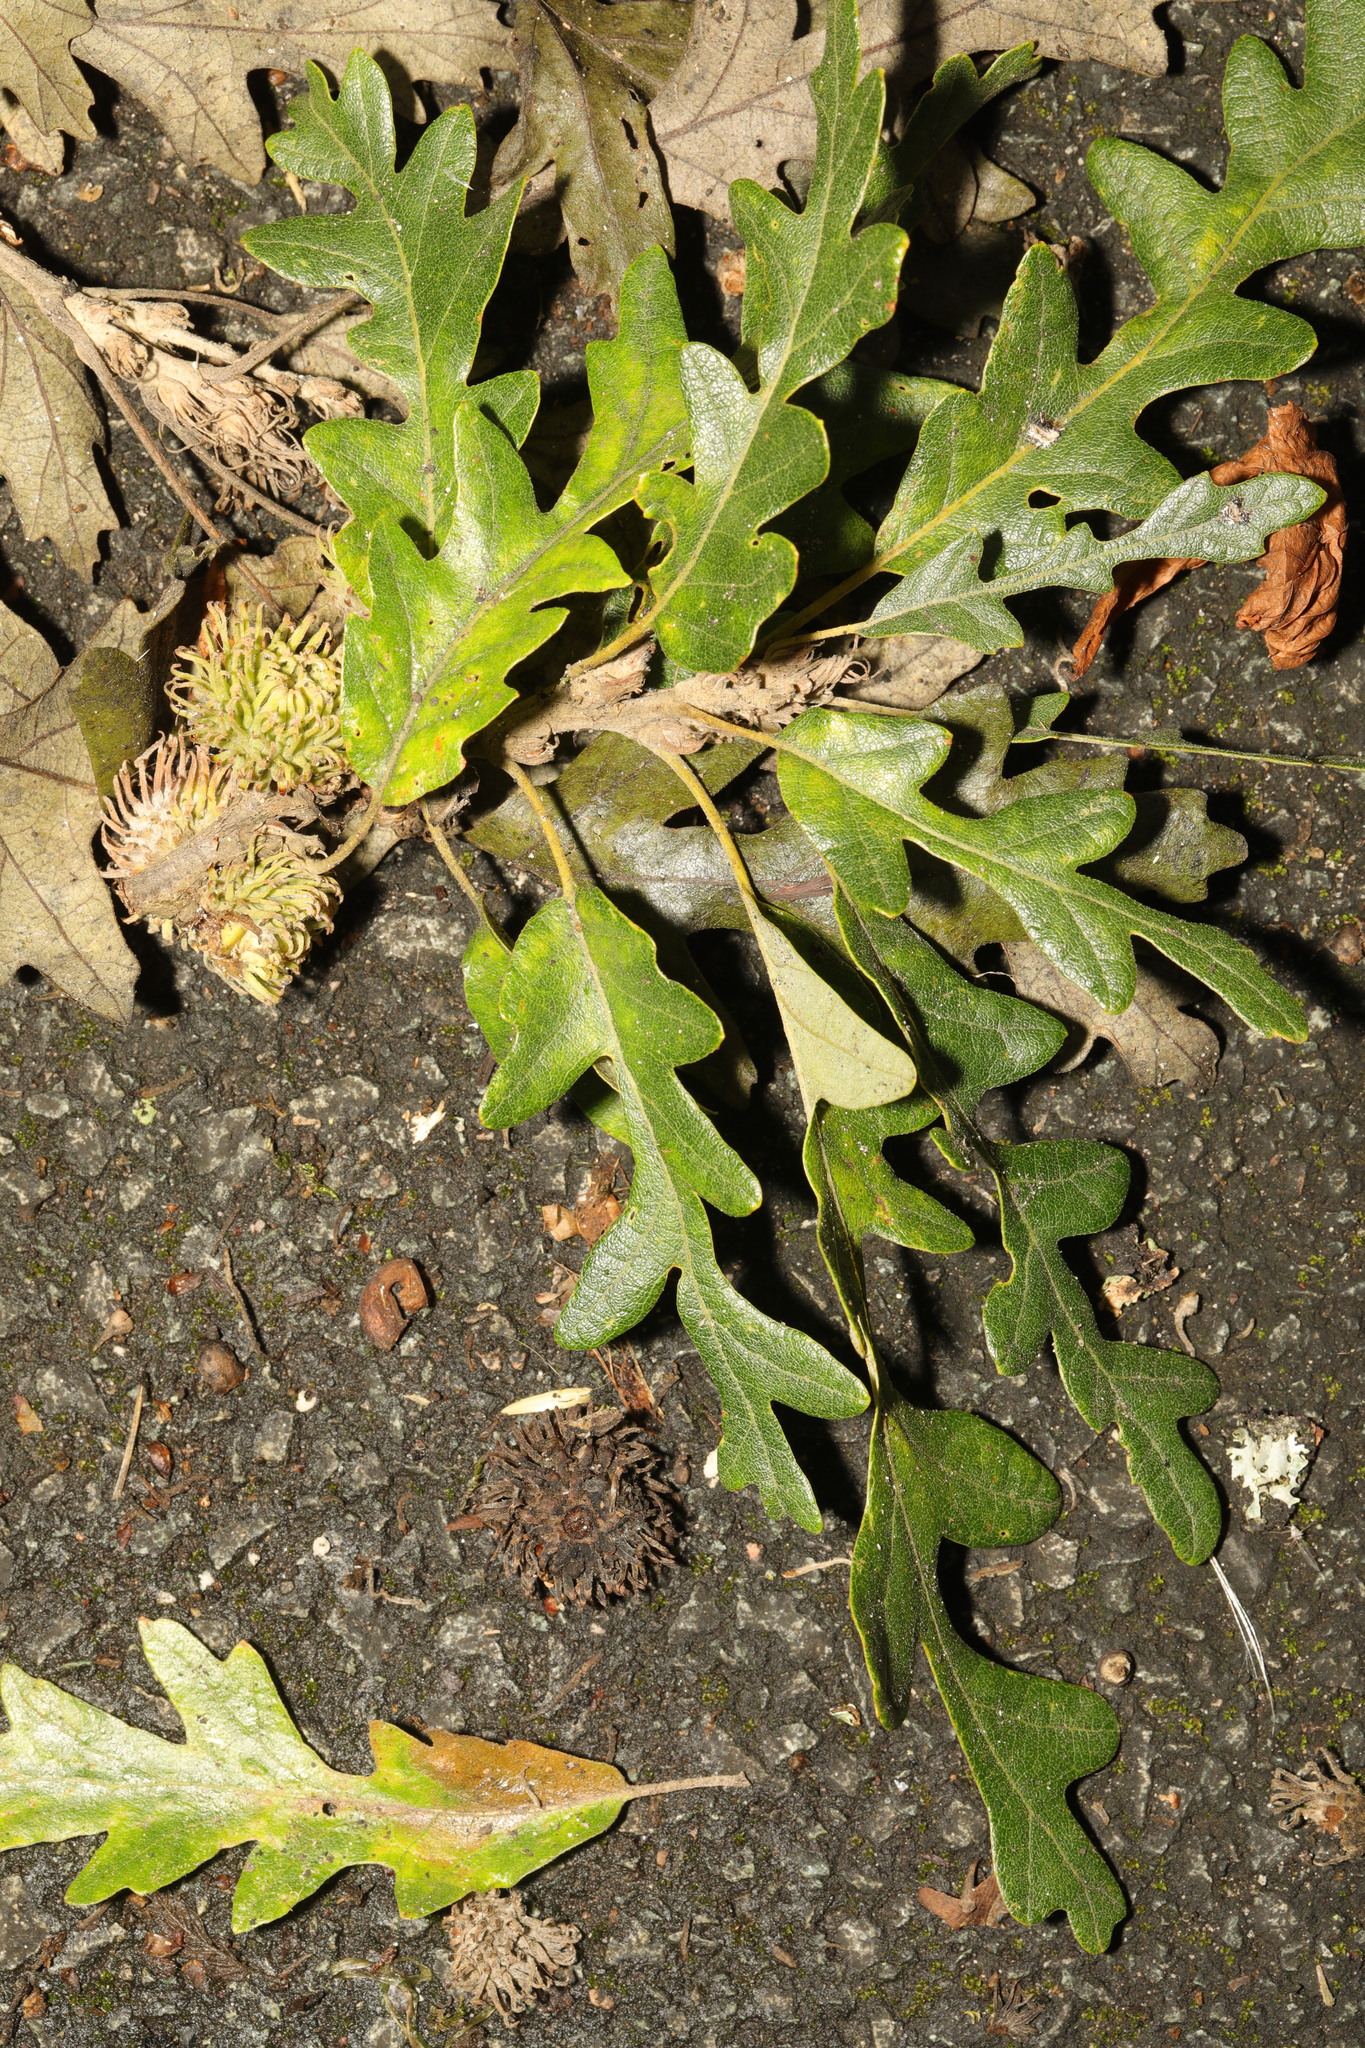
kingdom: Plantae
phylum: Tracheophyta
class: Magnoliopsida
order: Fagales
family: Fagaceae
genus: Quercus
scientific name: Quercus cerris
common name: Turkey oak
